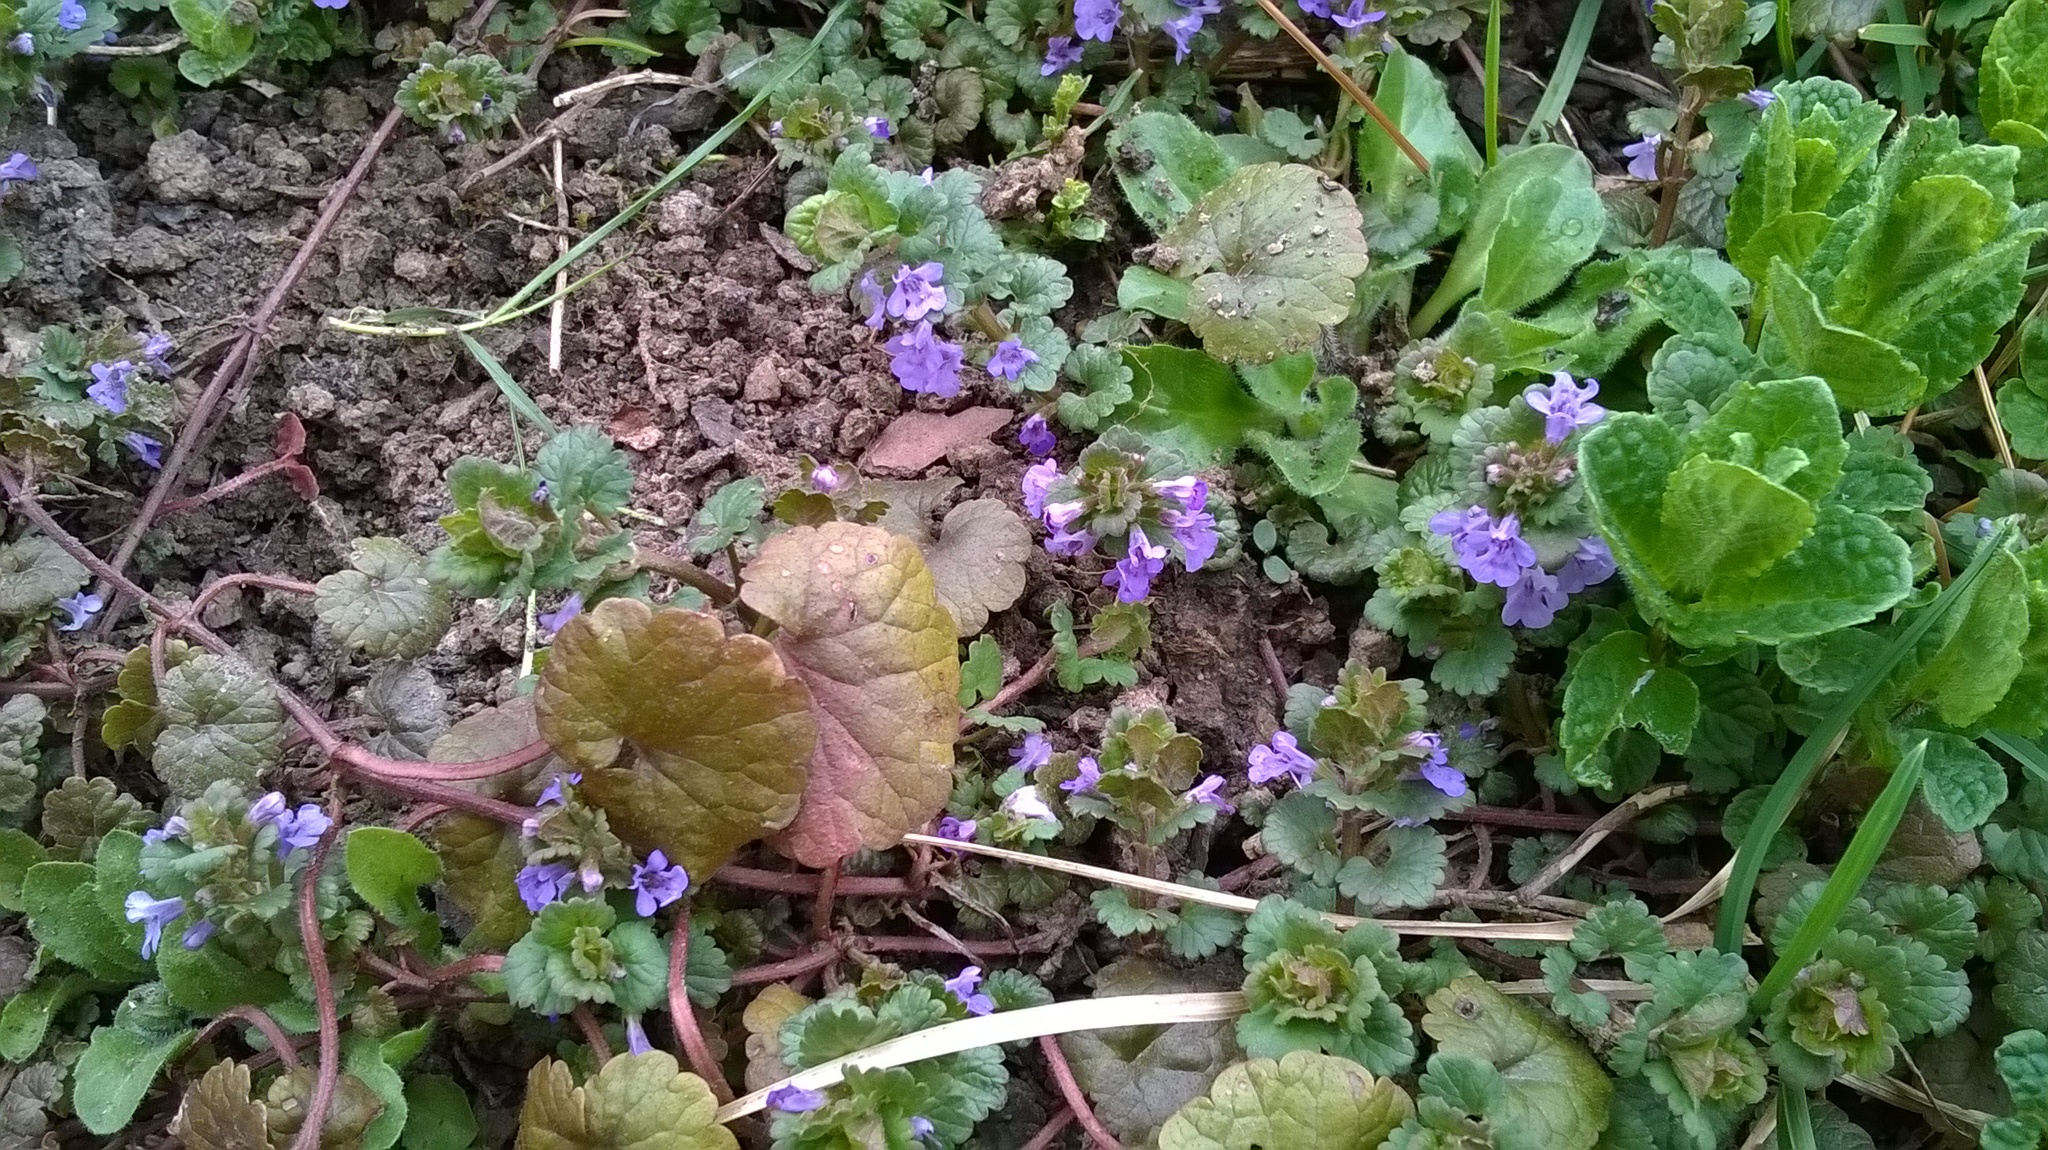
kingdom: Plantae
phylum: Tracheophyta
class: Magnoliopsida
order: Lamiales
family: Lamiaceae
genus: Glechoma
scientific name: Glechoma hederacea
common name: Ground ivy
